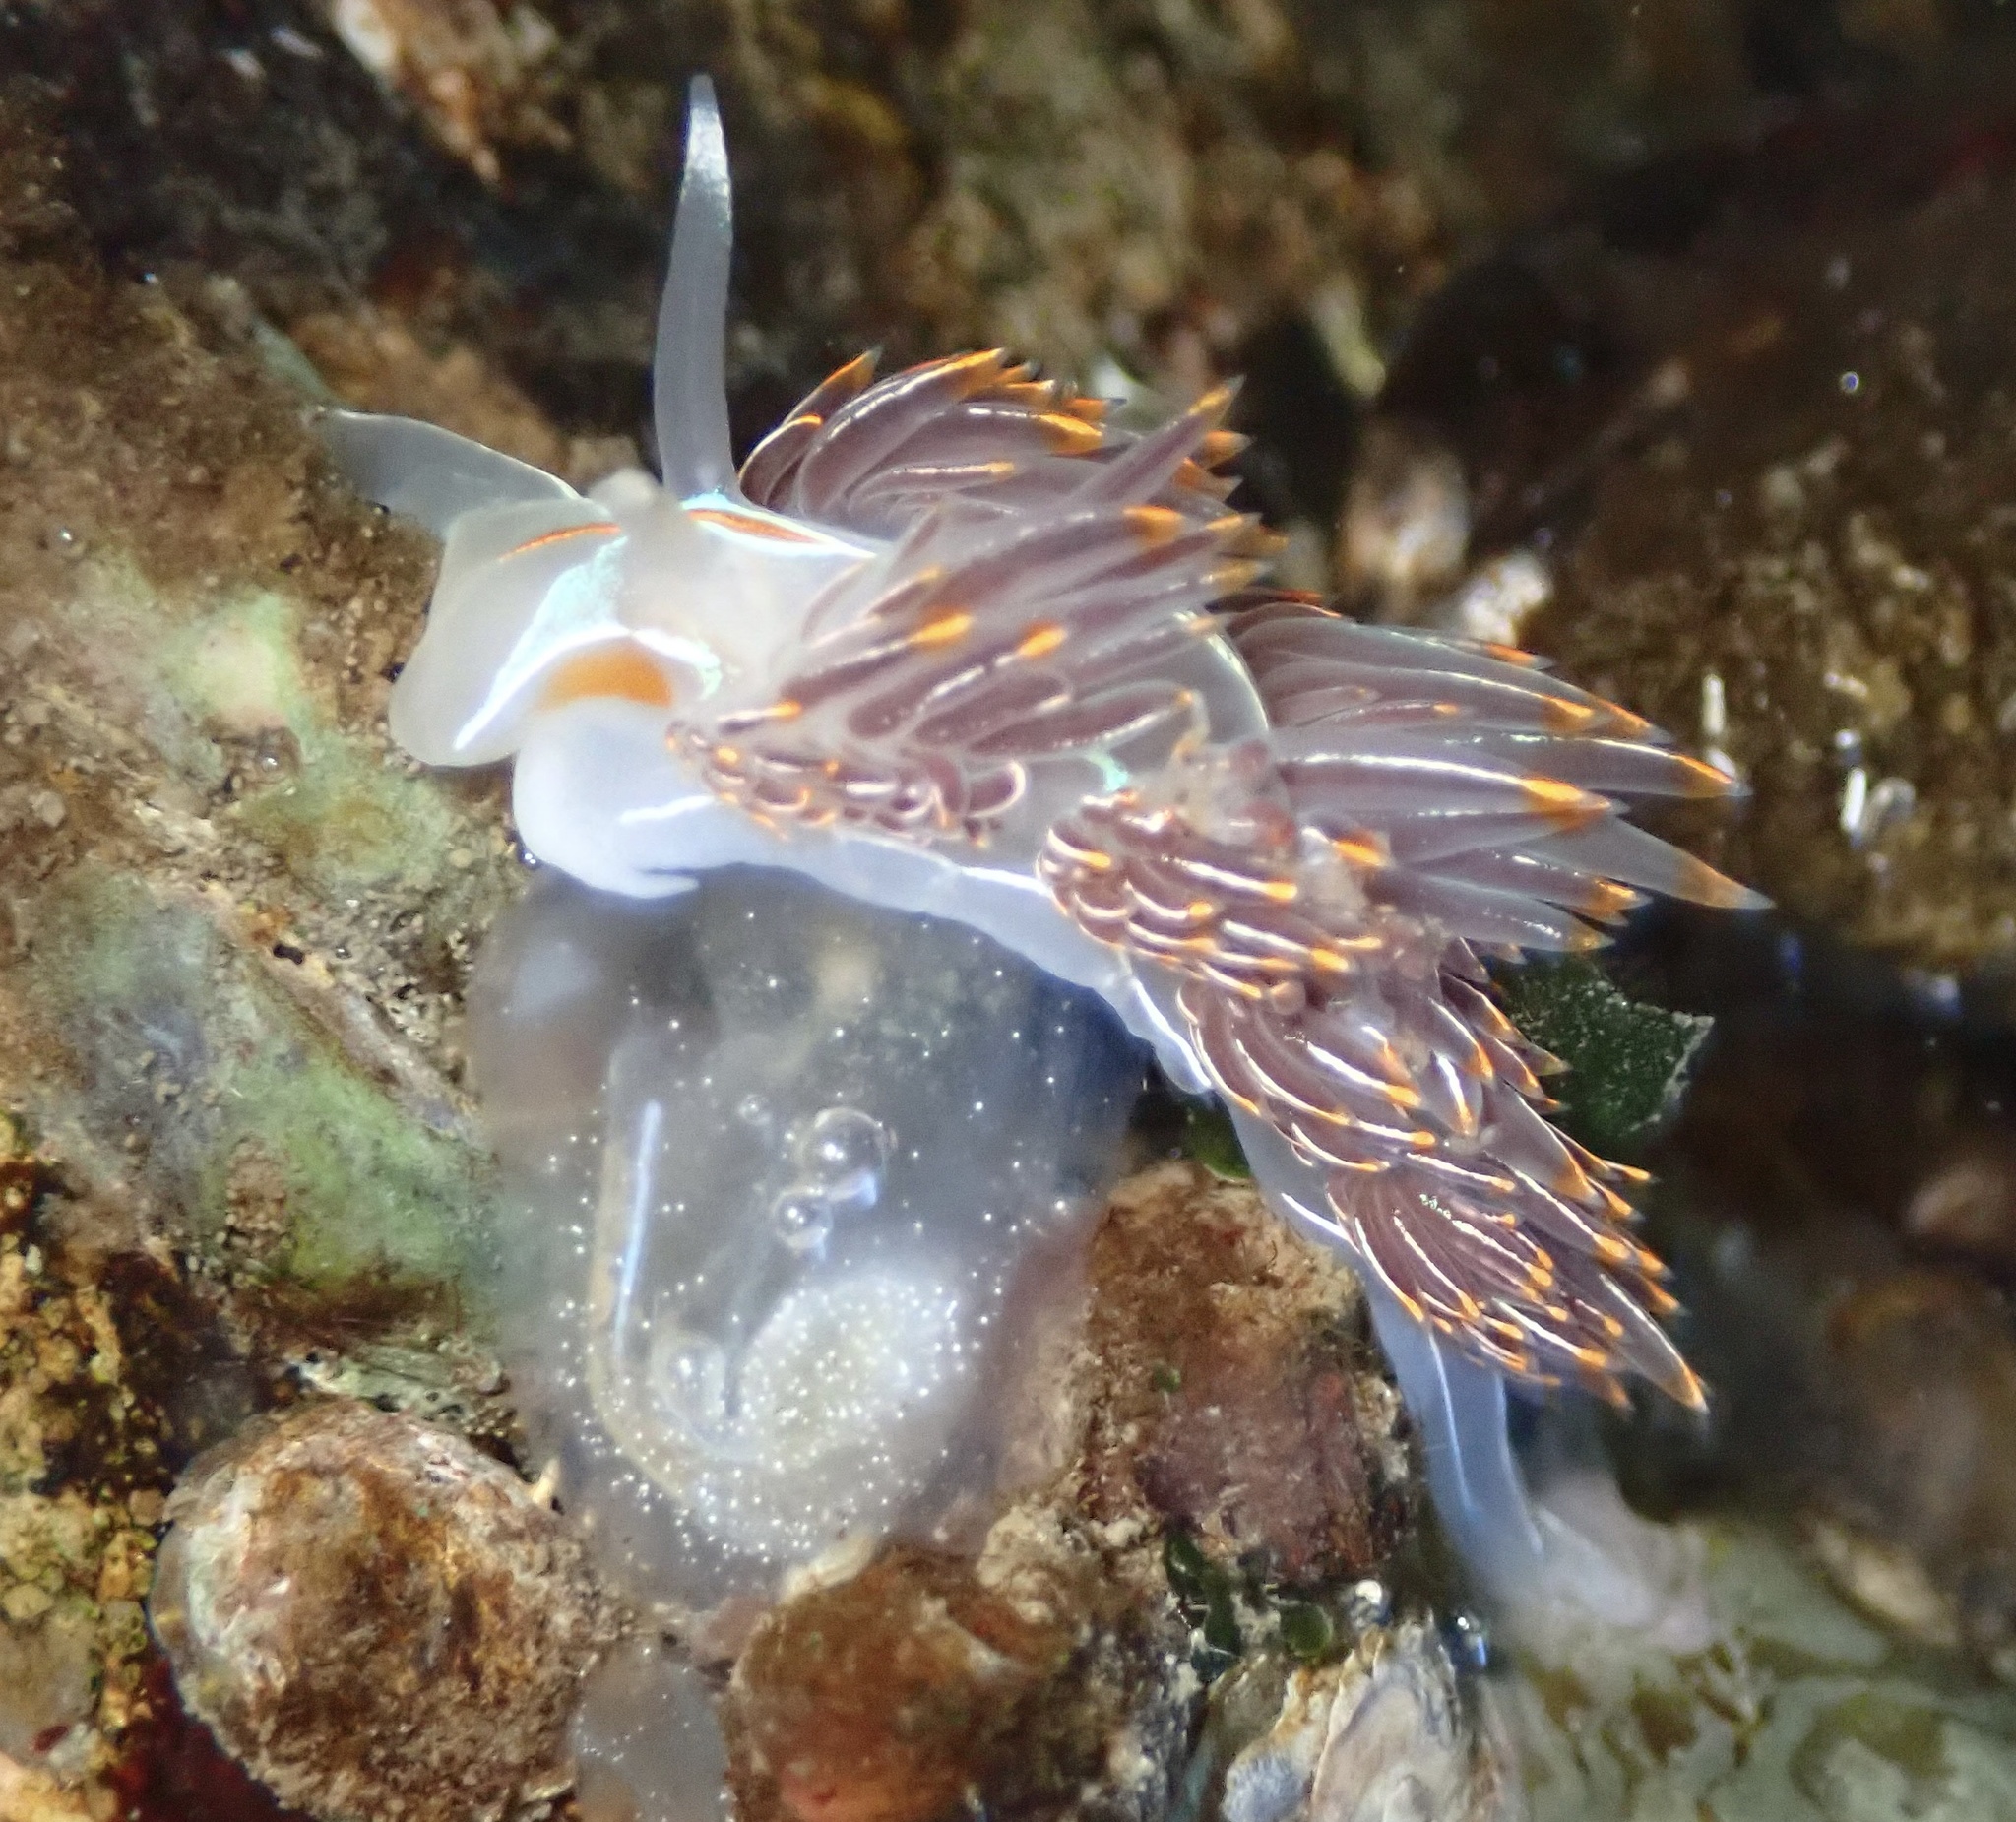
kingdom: Animalia
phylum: Mollusca
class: Gastropoda
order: Nudibranchia
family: Myrrhinidae
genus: Hermissenda
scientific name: Hermissenda crassicornis
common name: Hermissenda
